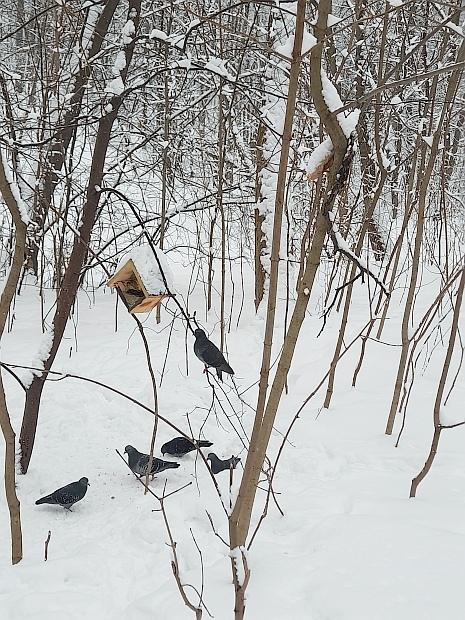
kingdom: Animalia
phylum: Chordata
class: Aves
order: Columbiformes
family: Columbidae
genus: Columba
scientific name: Columba livia
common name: Rock pigeon
